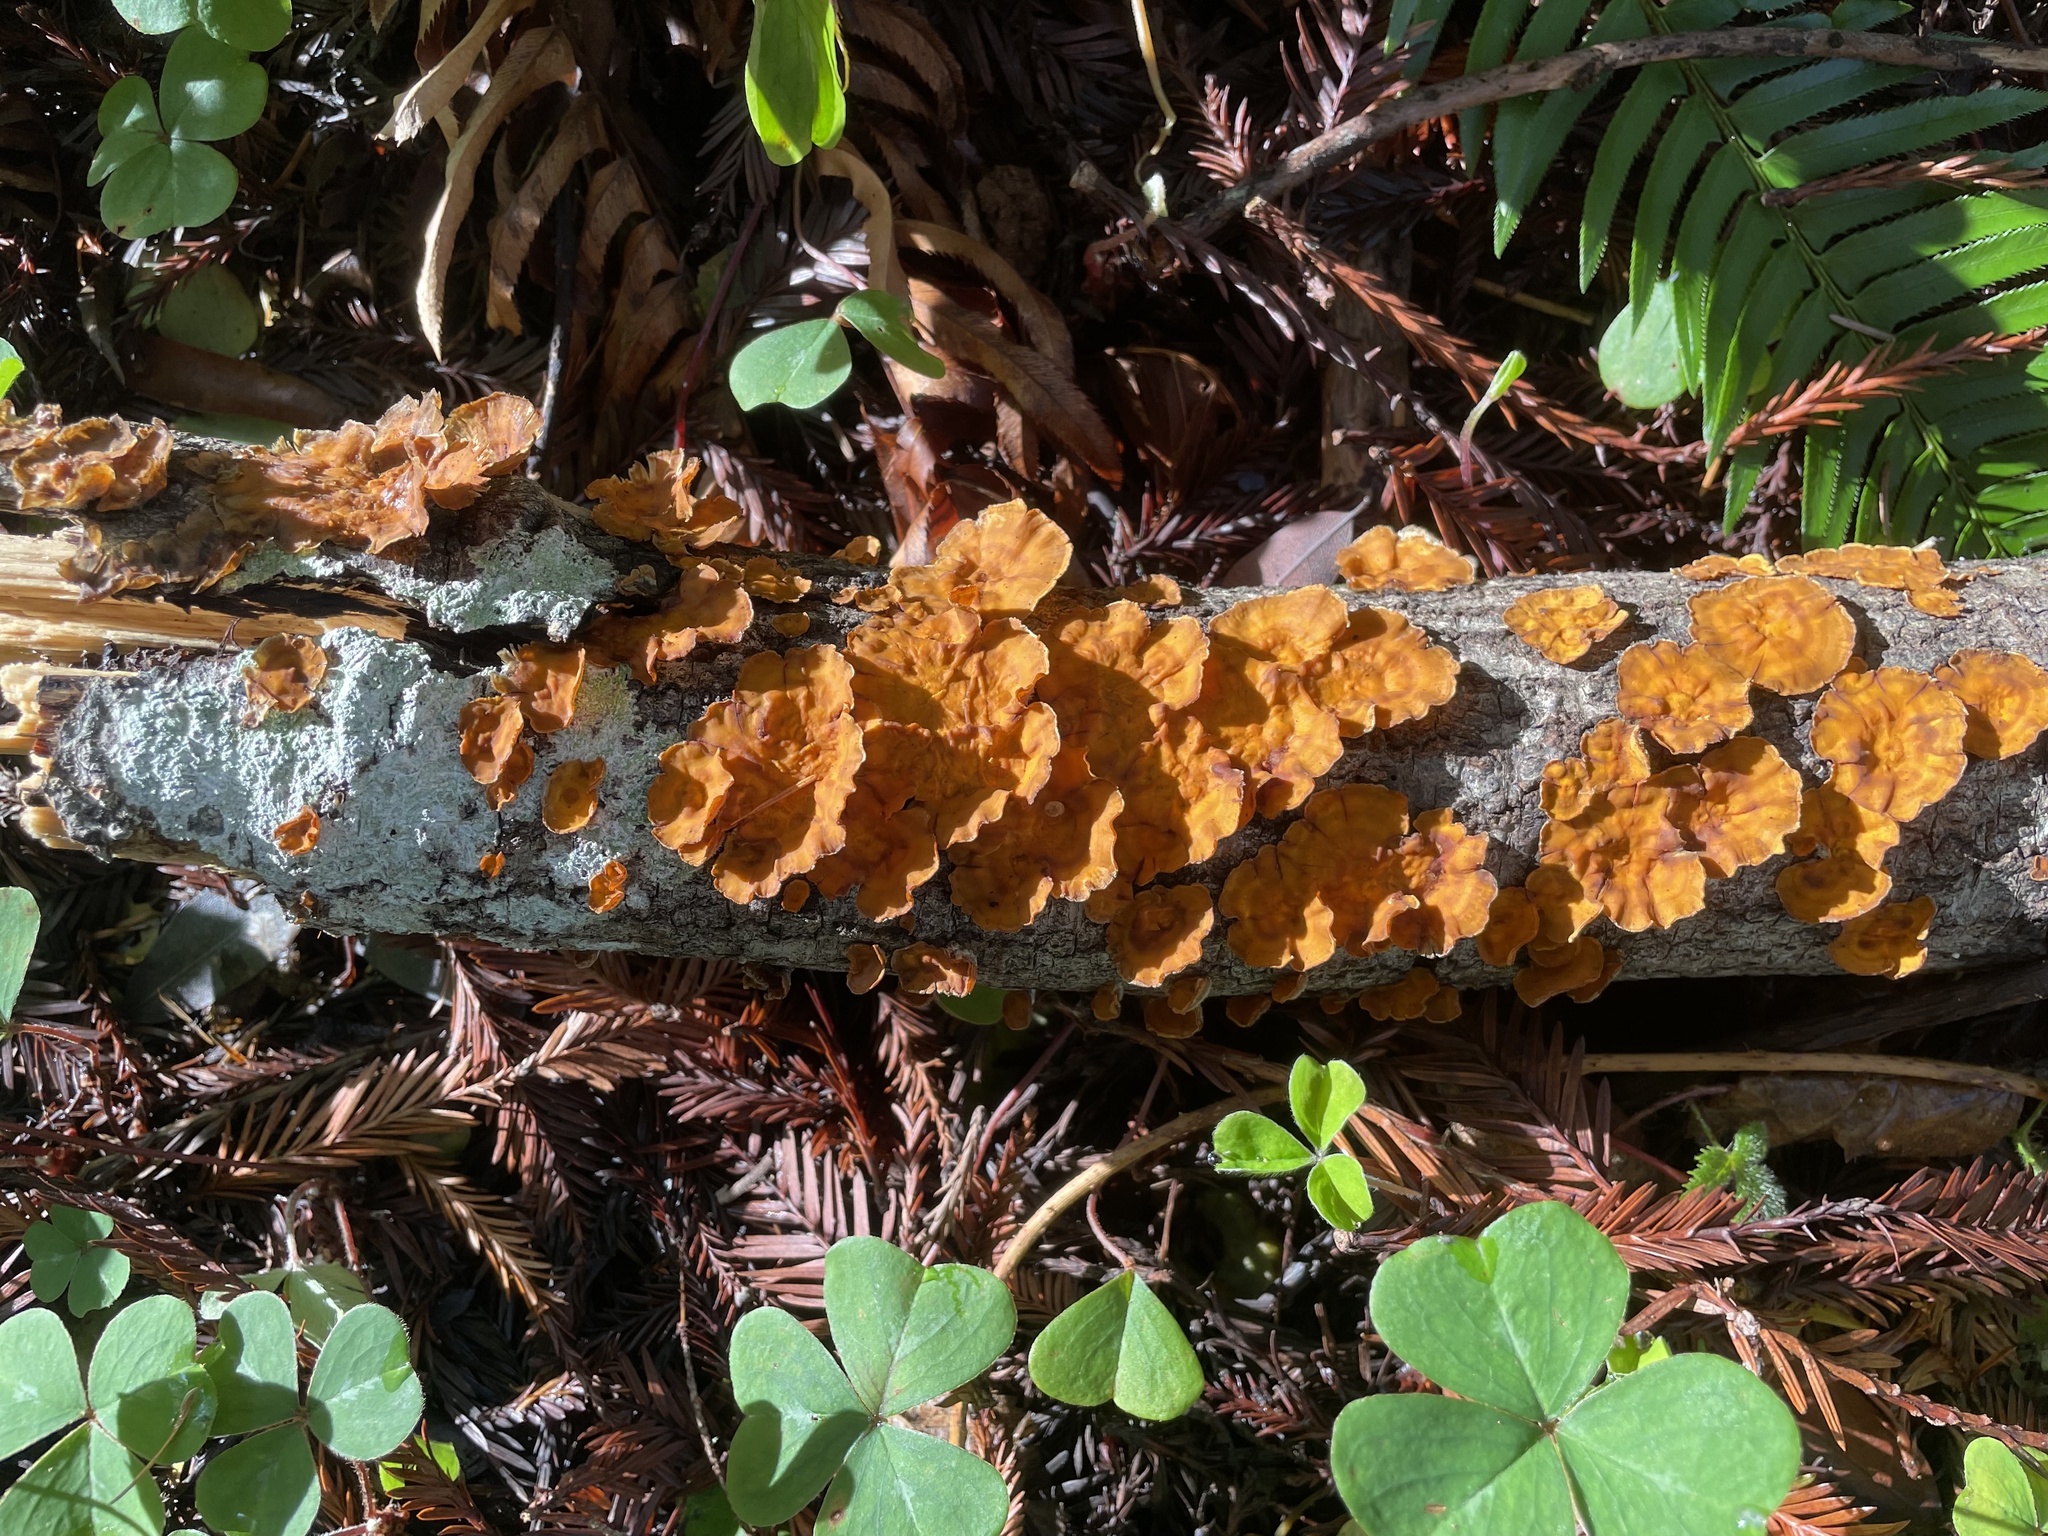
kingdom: Fungi
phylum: Basidiomycota
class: Agaricomycetes
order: Russulales
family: Stereaceae
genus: Stereum
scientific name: Stereum hirsutum
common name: Hairy curtain crust
